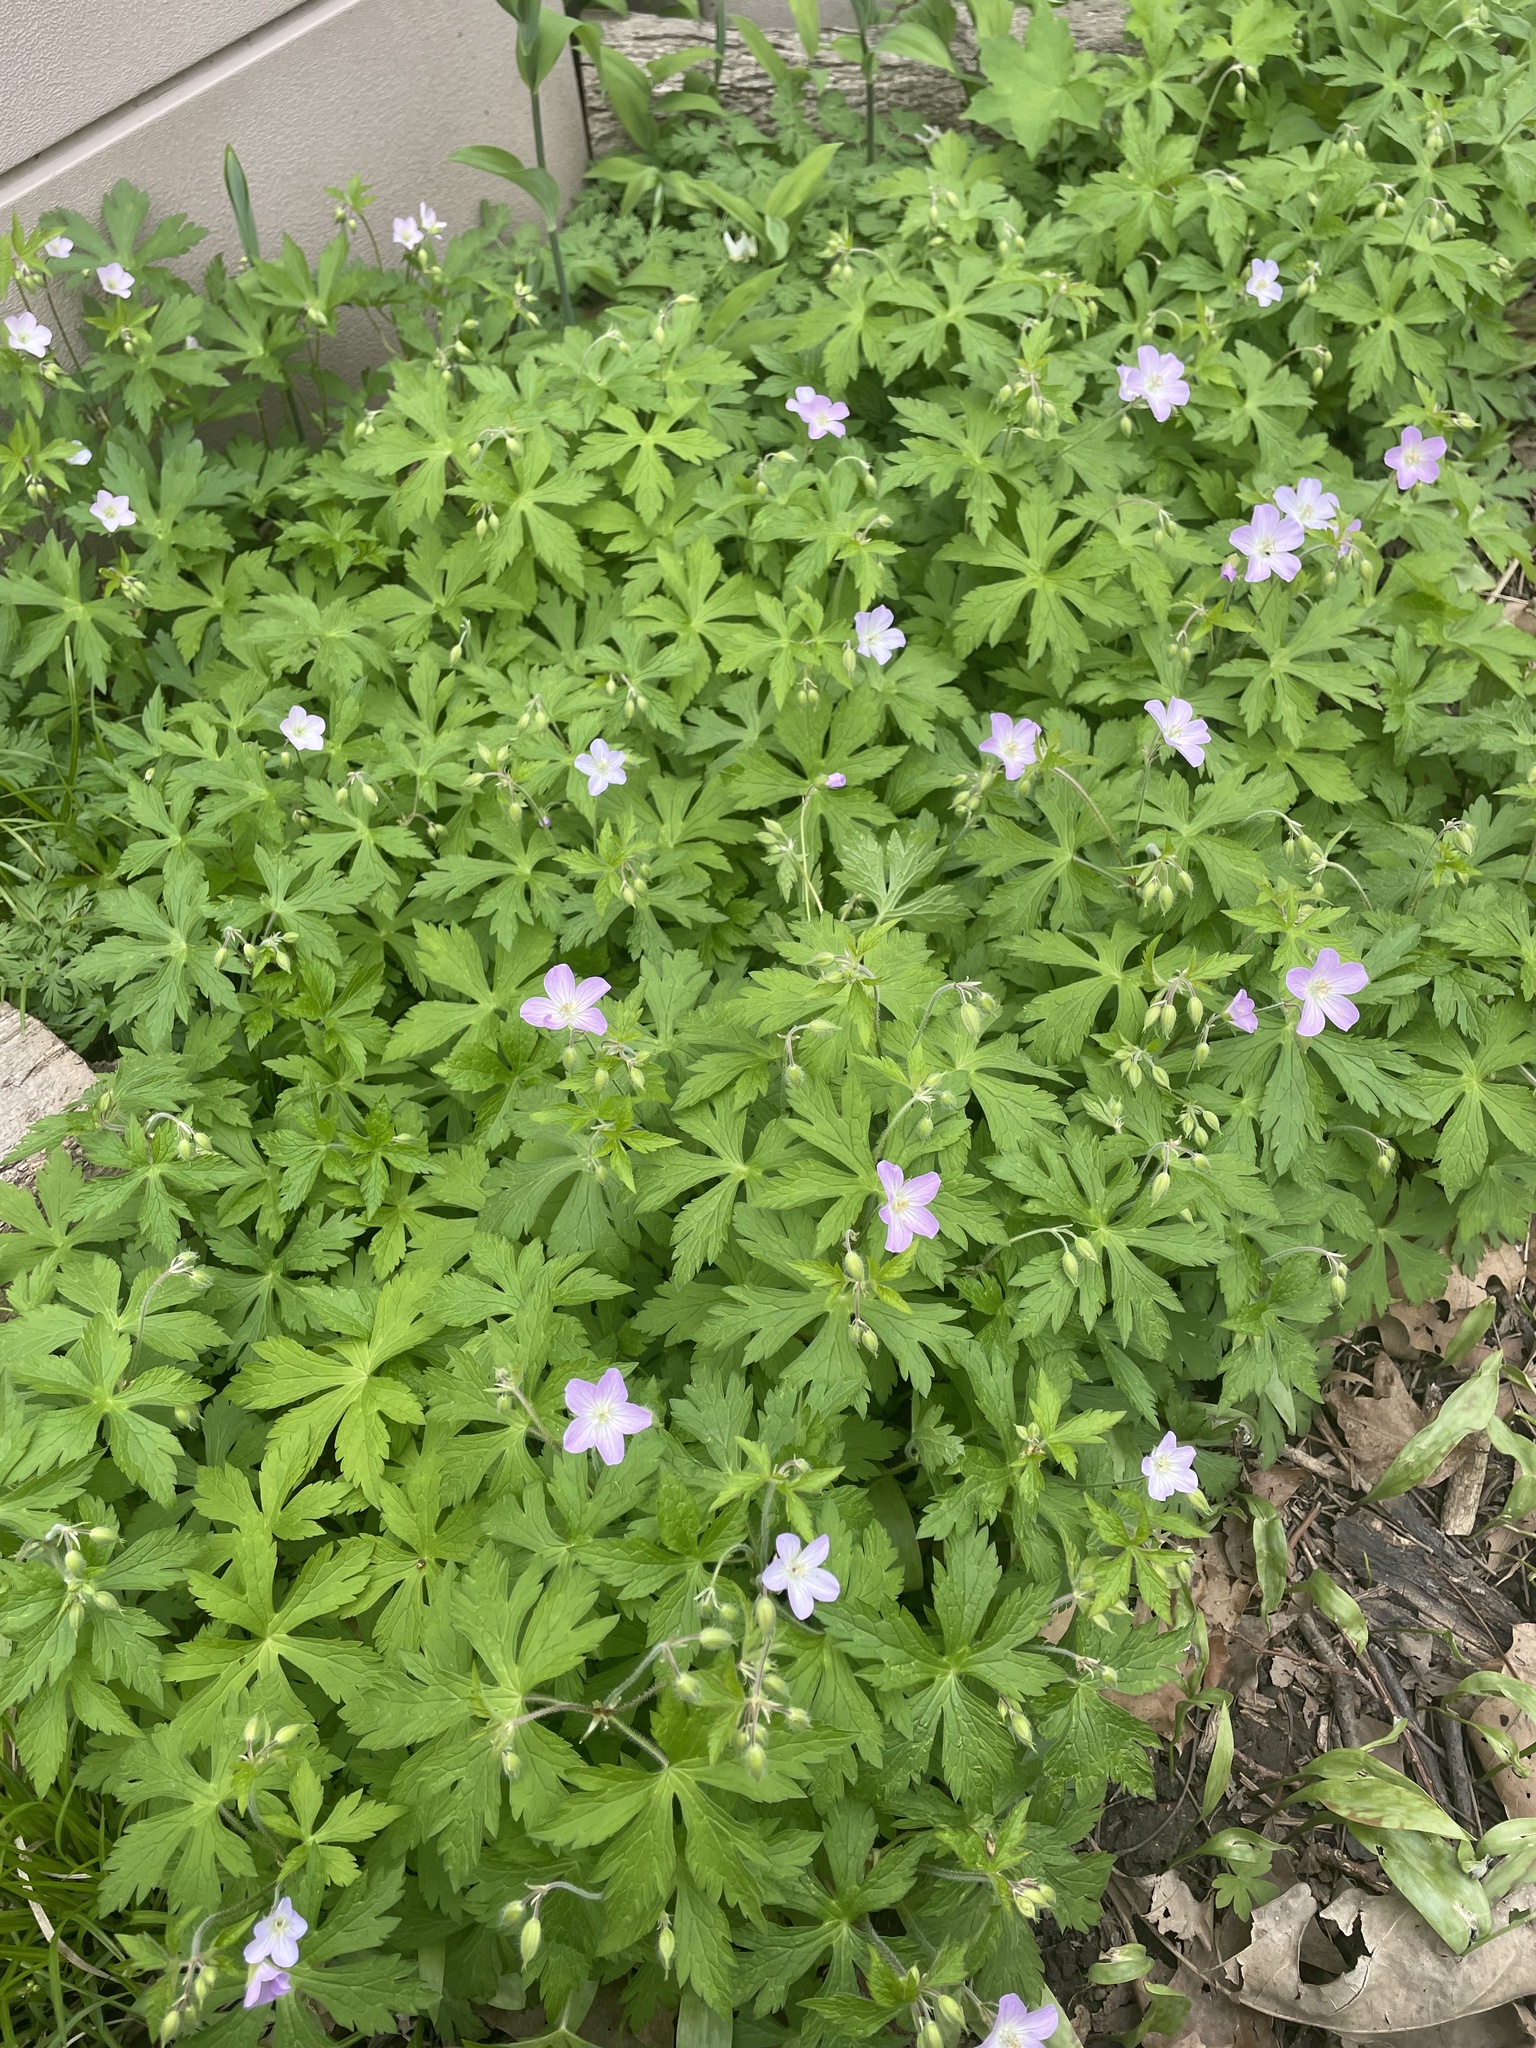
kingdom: Plantae
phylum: Tracheophyta
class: Magnoliopsida
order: Geraniales
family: Geraniaceae
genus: Geranium
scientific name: Geranium maculatum
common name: Spotted geranium
